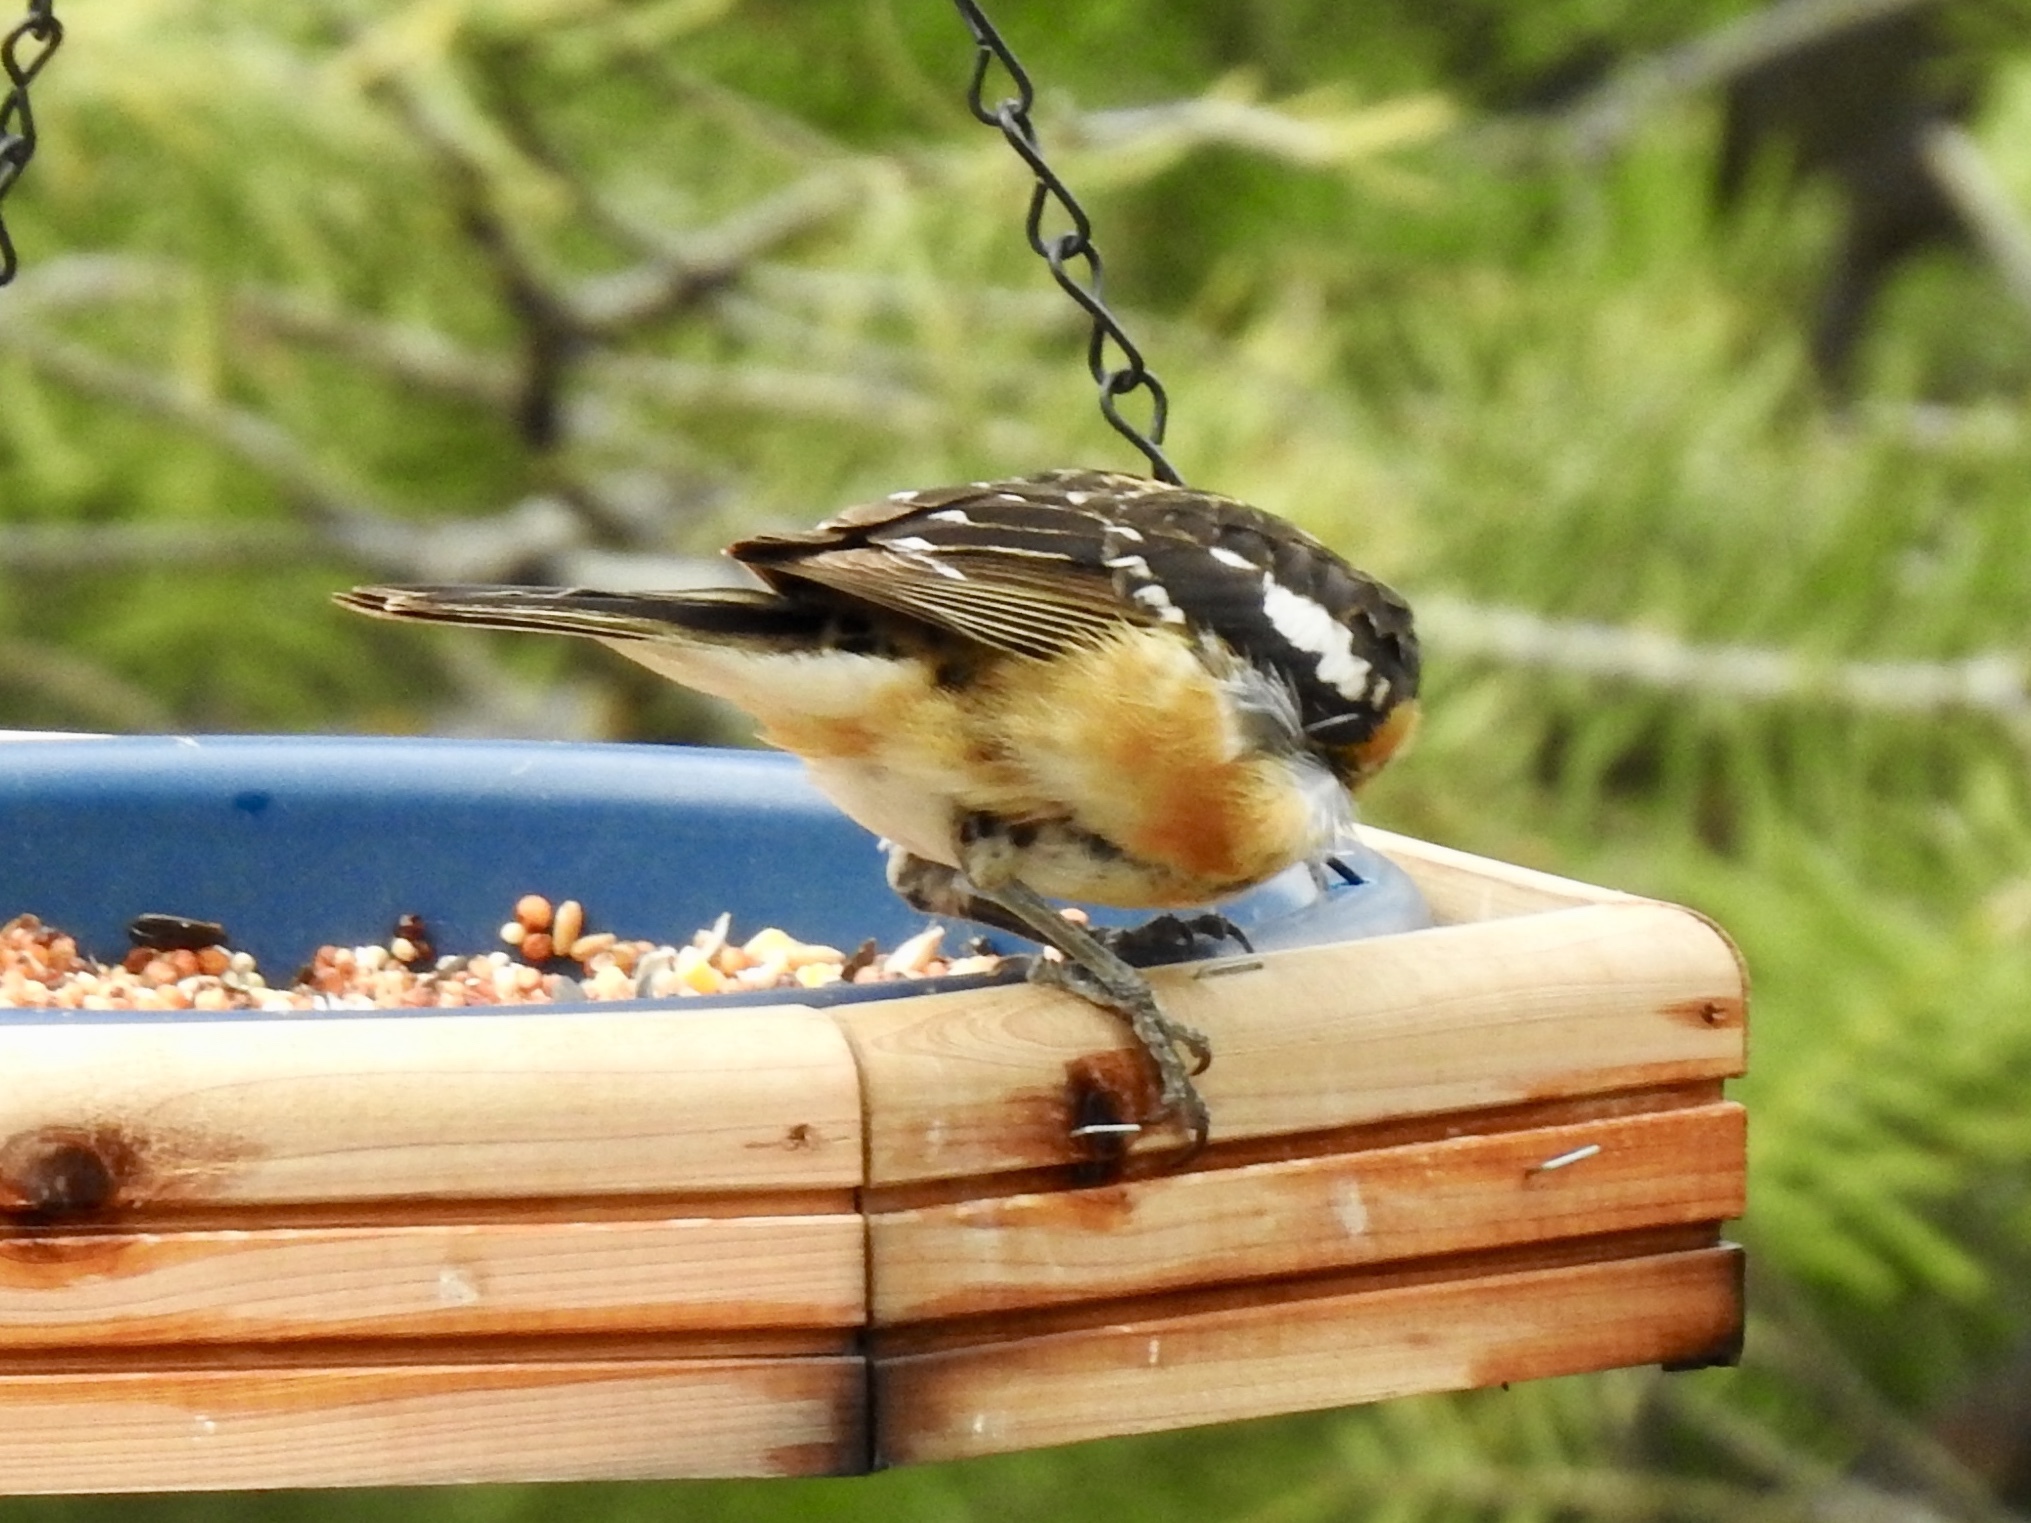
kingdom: Animalia
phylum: Chordata
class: Aves
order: Passeriformes
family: Cardinalidae
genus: Pheucticus
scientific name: Pheucticus melanocephalus
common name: Black-headed grosbeak
